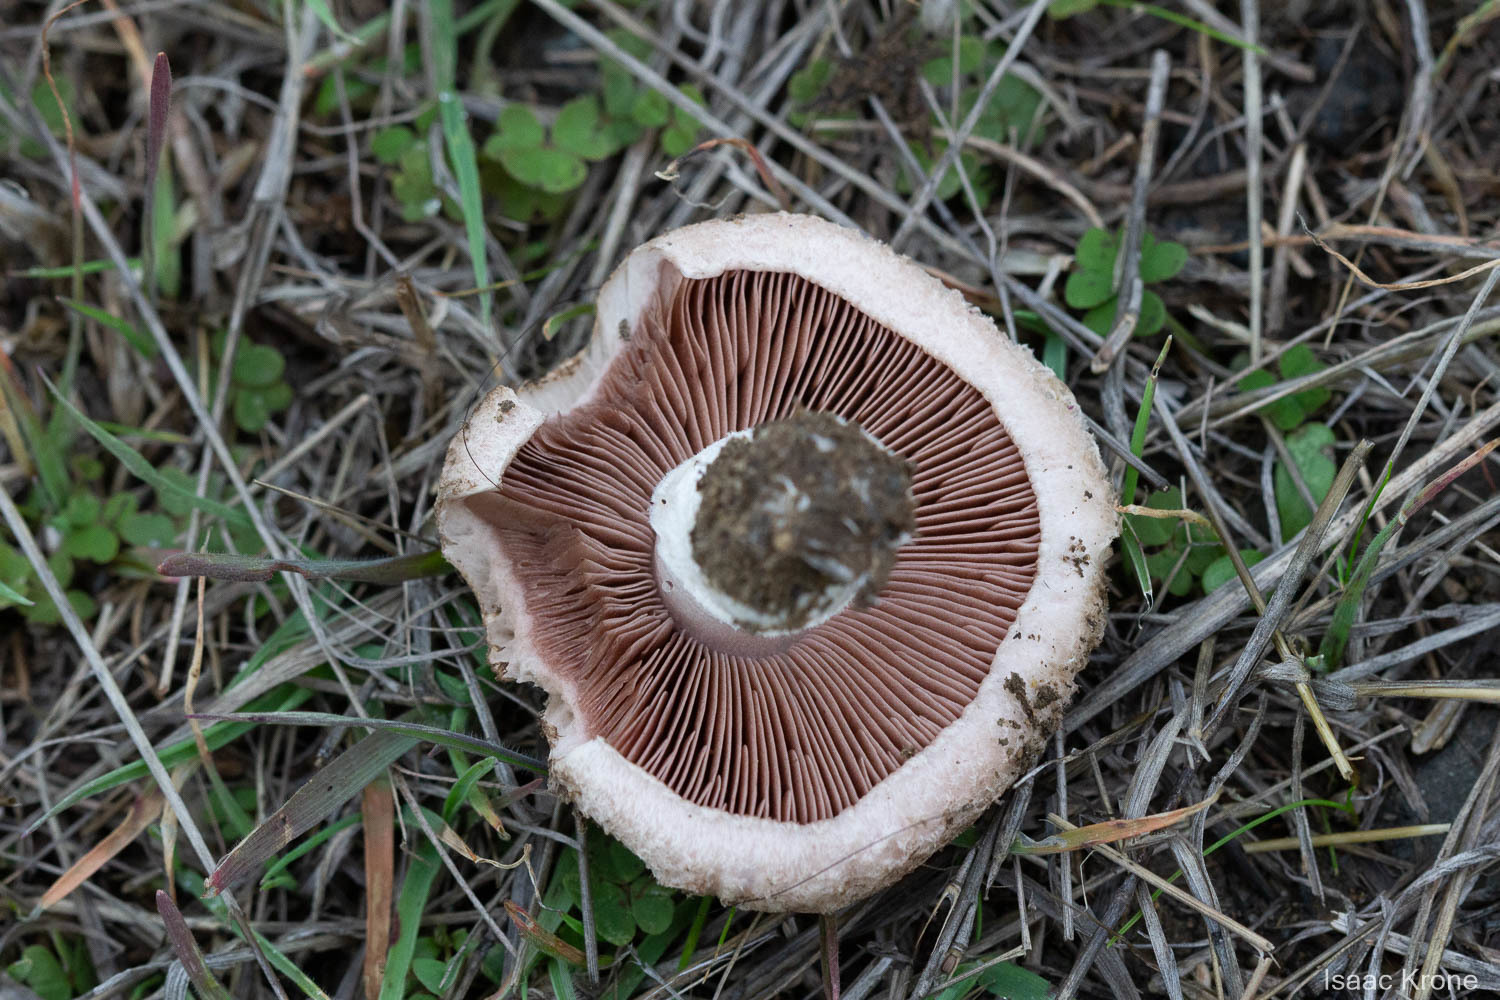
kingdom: Fungi
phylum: Basidiomycota
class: Agaricomycetes
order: Agaricales
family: Agaricaceae
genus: Agaricus
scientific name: Agaricus incultorum
